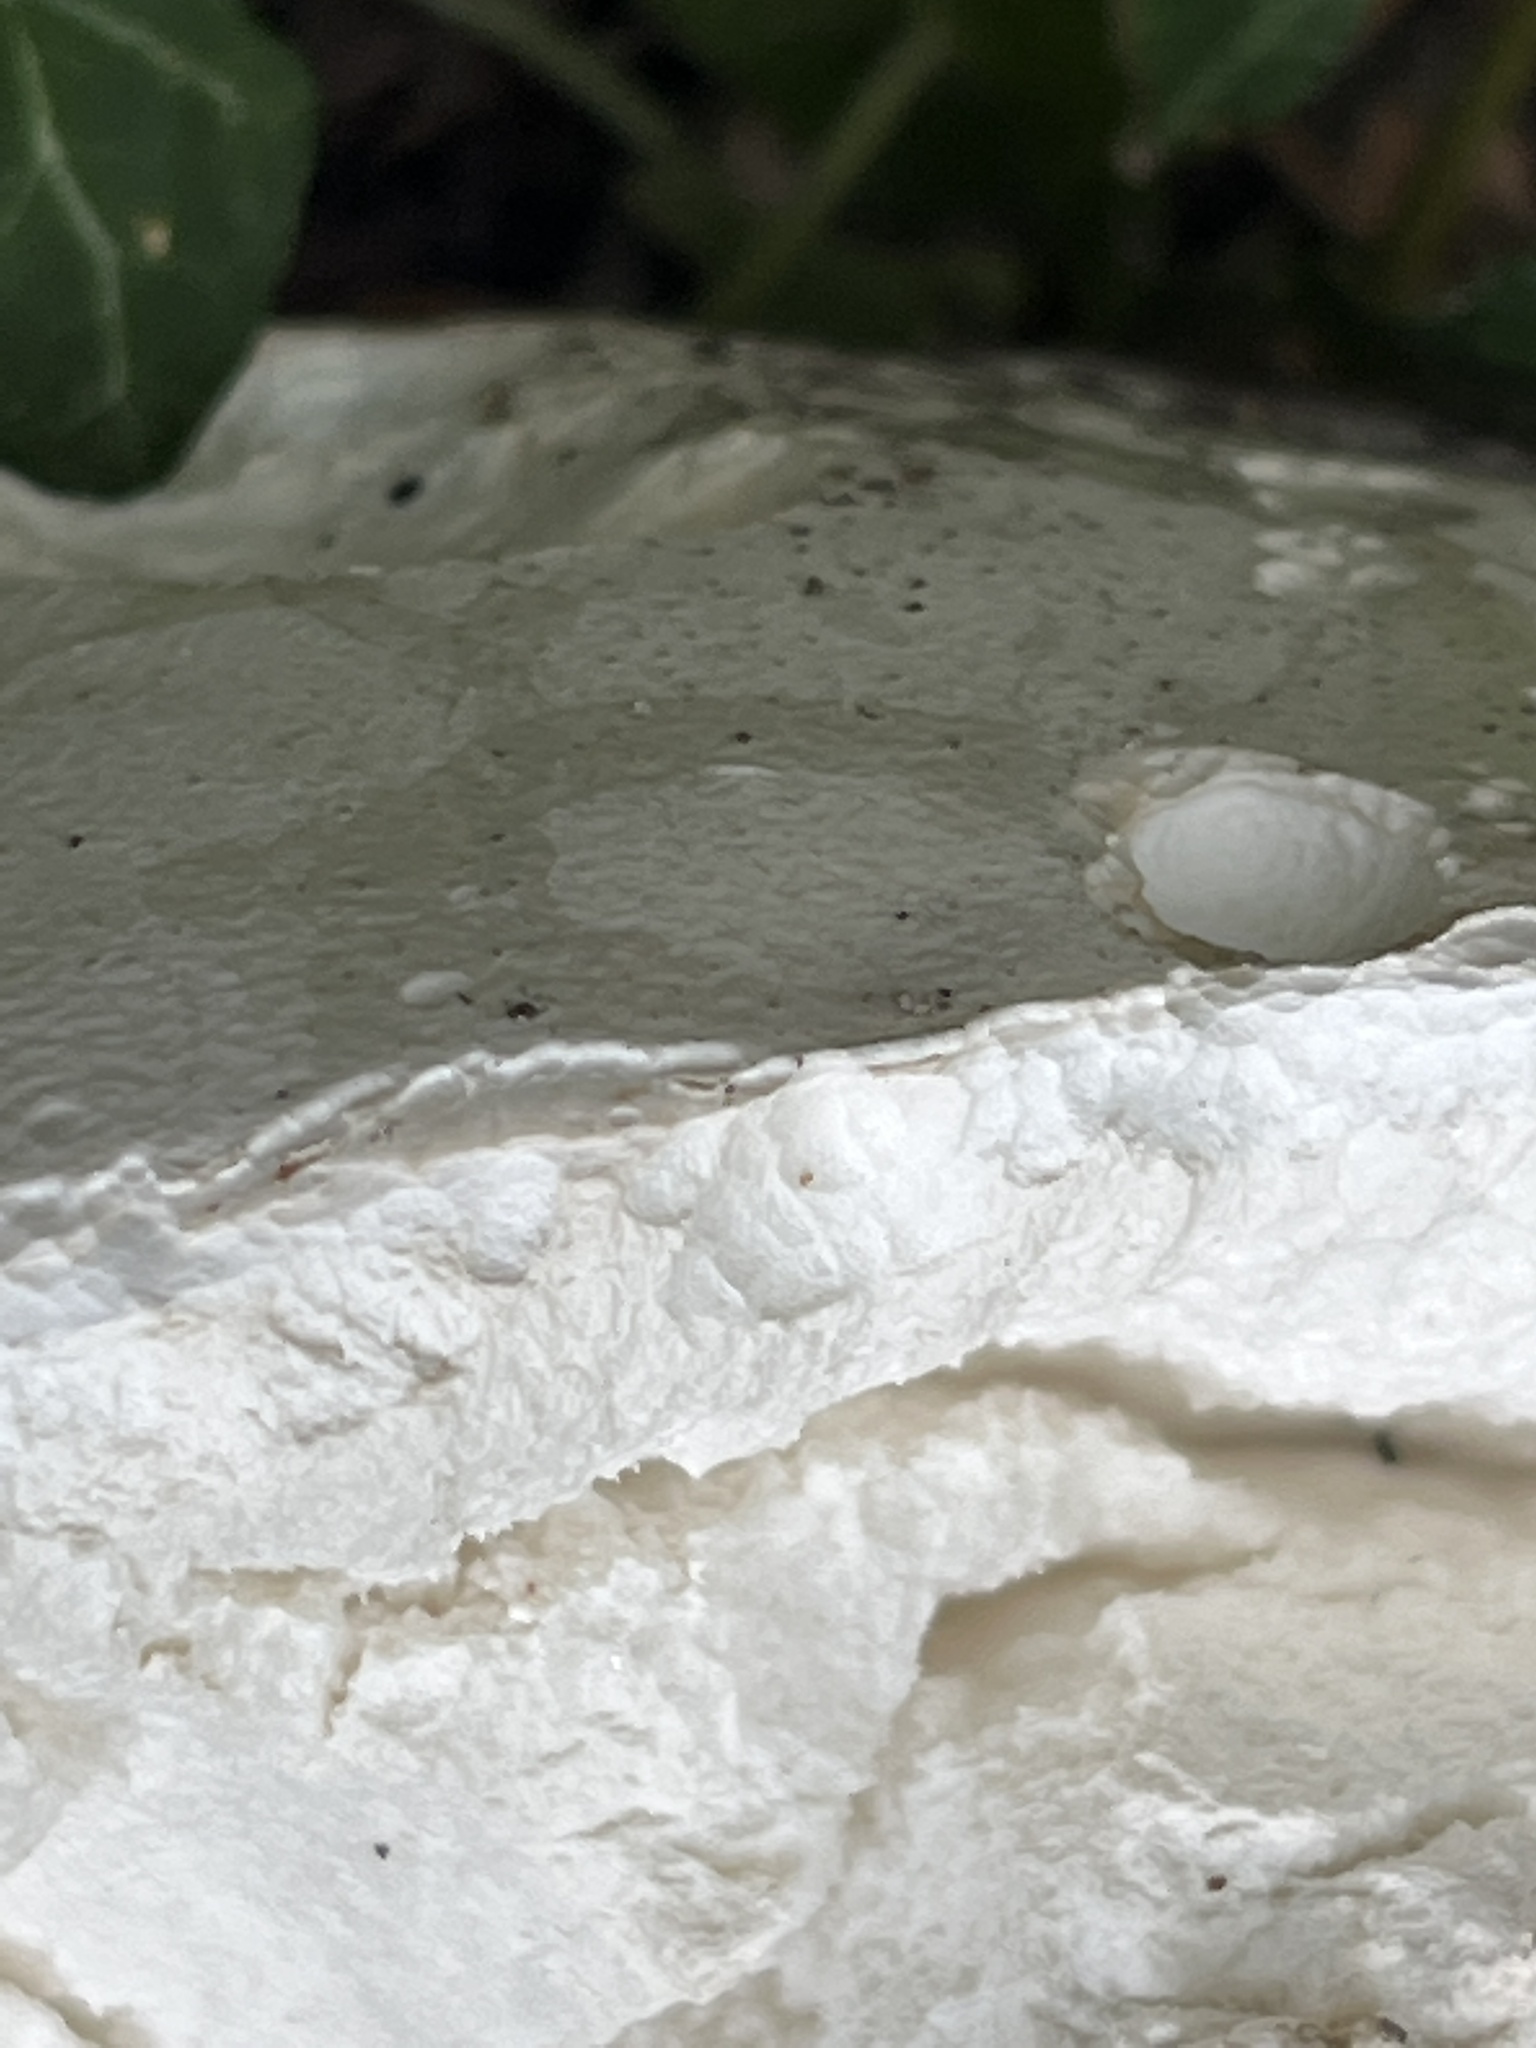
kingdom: Fungi
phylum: Basidiomycota
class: Agaricomycetes
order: Agaricales
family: Lycoperdaceae
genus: Calvatia
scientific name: Calvatia gigantea
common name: Giant puffball
